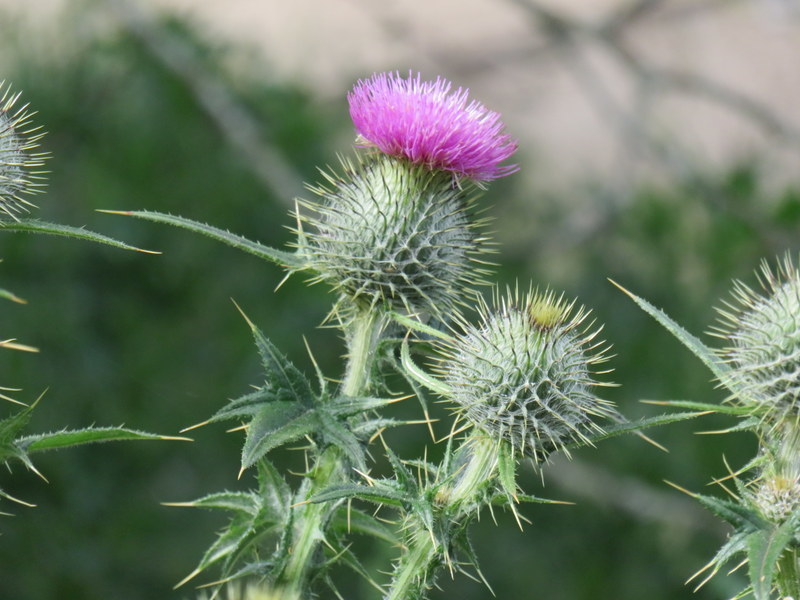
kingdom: Plantae
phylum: Tracheophyta
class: Magnoliopsida
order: Asterales
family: Asteraceae
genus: Cirsium
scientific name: Cirsium vulgare
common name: Bull thistle
